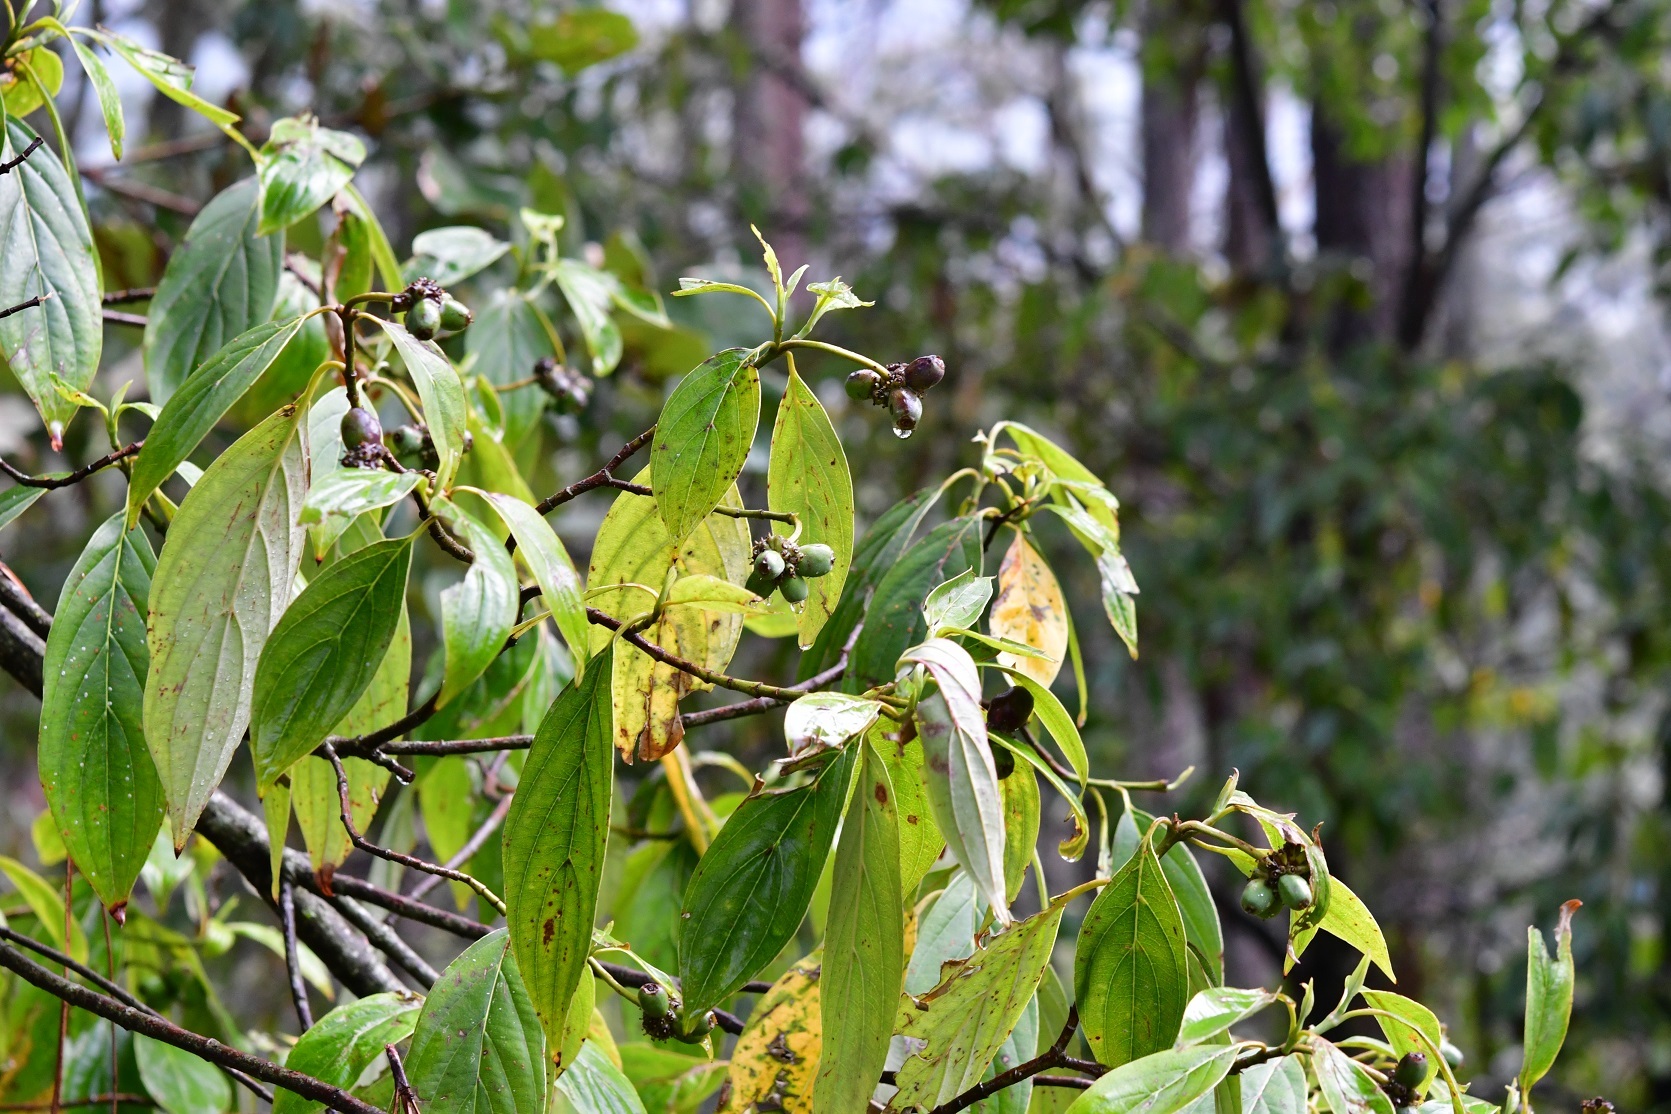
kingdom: Plantae
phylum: Tracheophyta
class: Magnoliopsida
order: Cornales
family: Cornaceae
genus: Cornus
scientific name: Cornus disciflora
